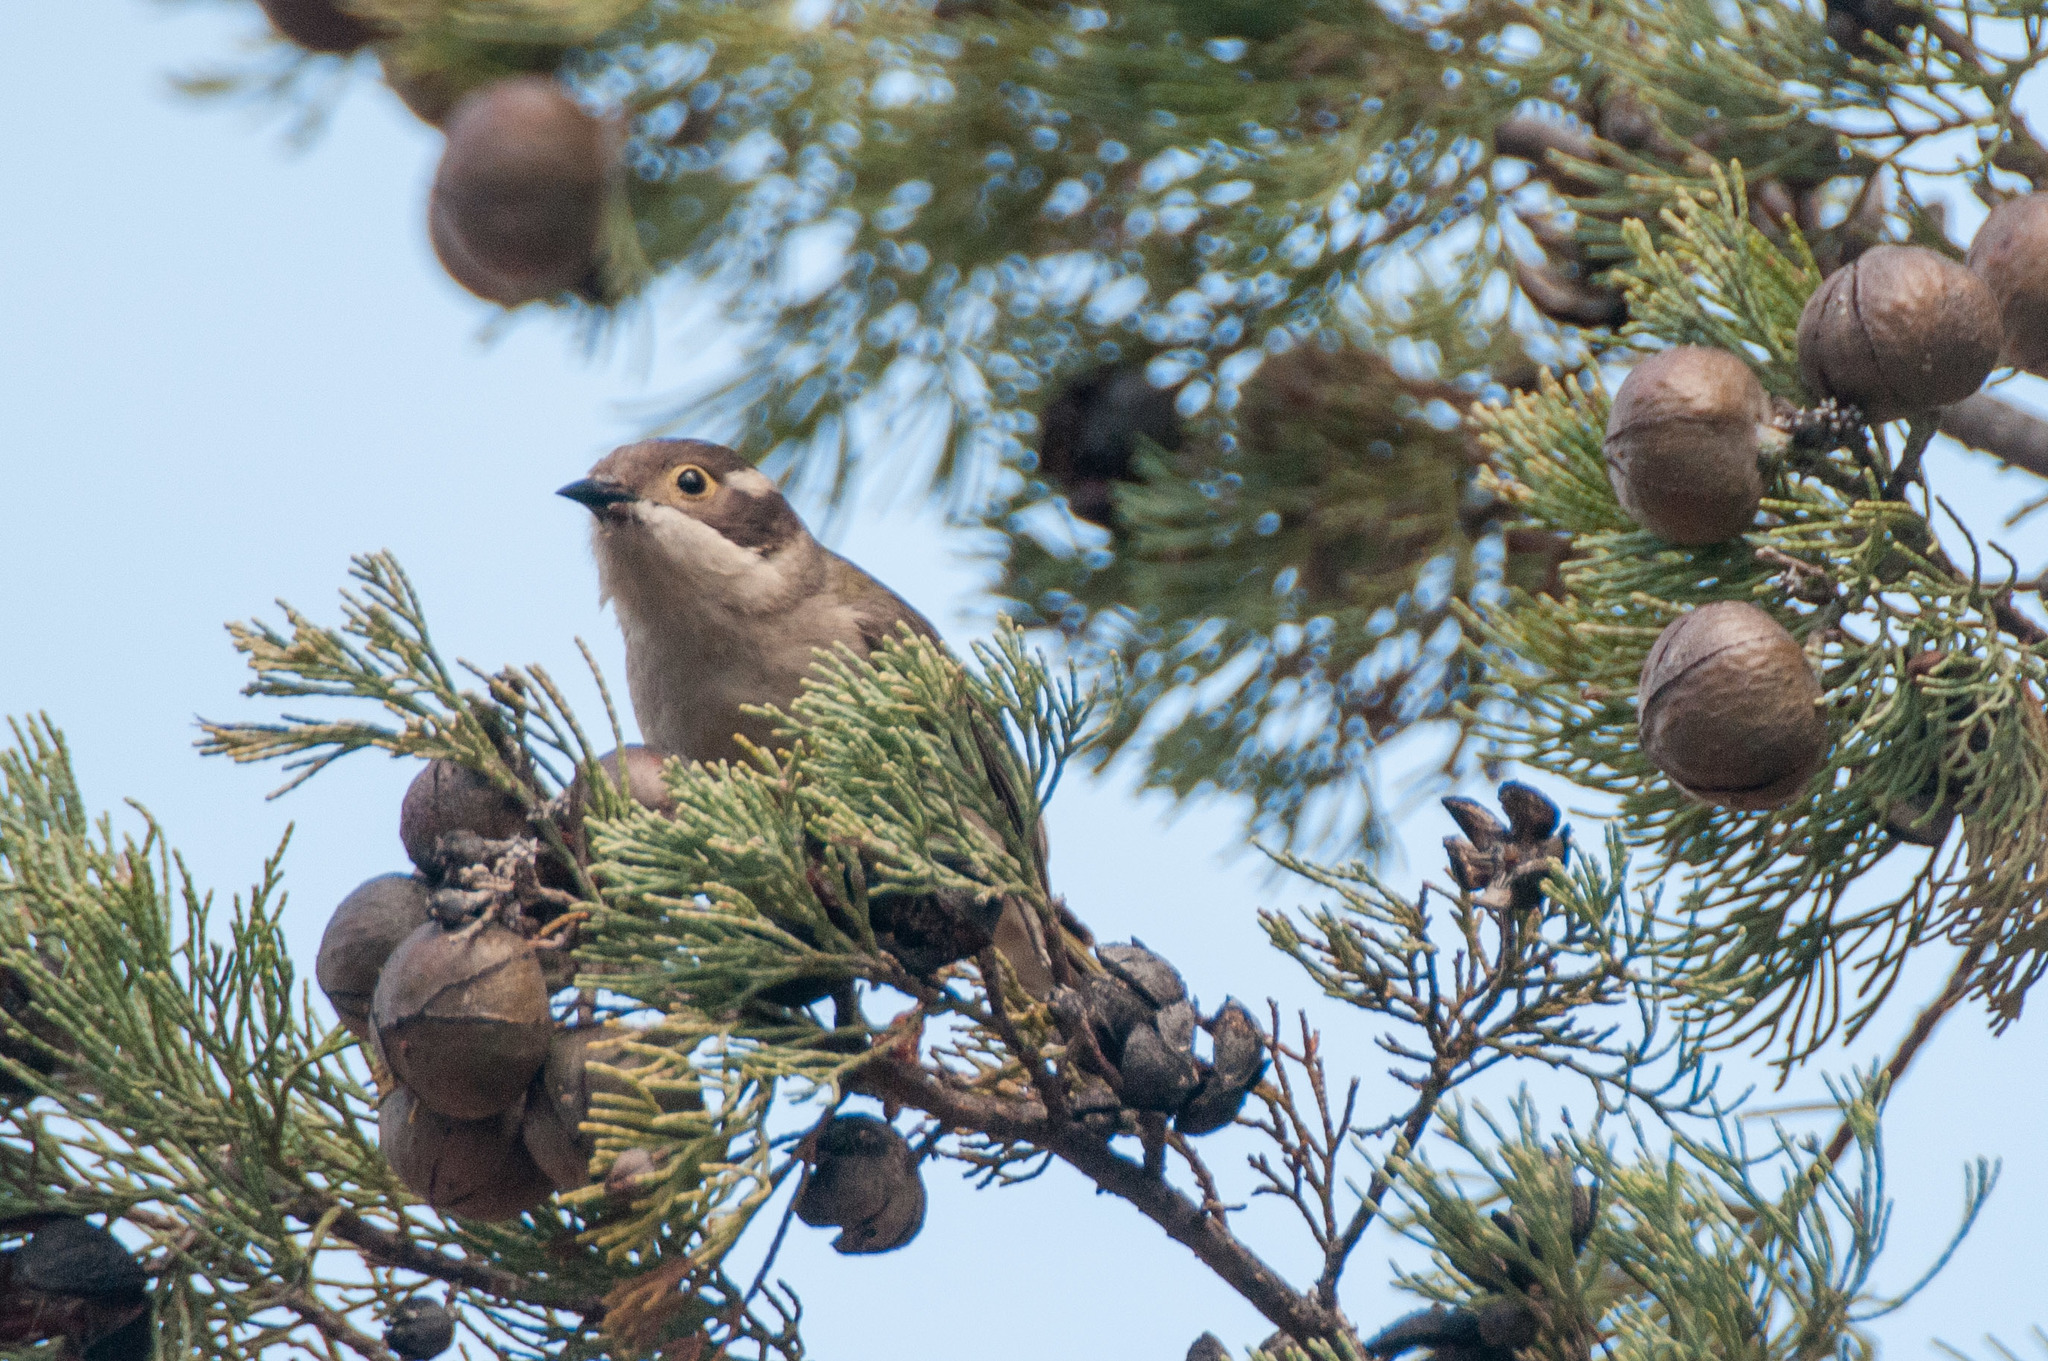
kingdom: Animalia
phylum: Chordata
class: Aves
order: Passeriformes
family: Meliphagidae
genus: Melithreptus
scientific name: Melithreptus brevirostris
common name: Brown-headed honeyeater
